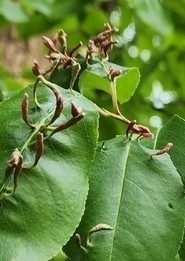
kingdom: Animalia
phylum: Arthropoda
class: Arachnida
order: Trombidiformes
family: Eriophyidae
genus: Eriophyes
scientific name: Eriophyes
